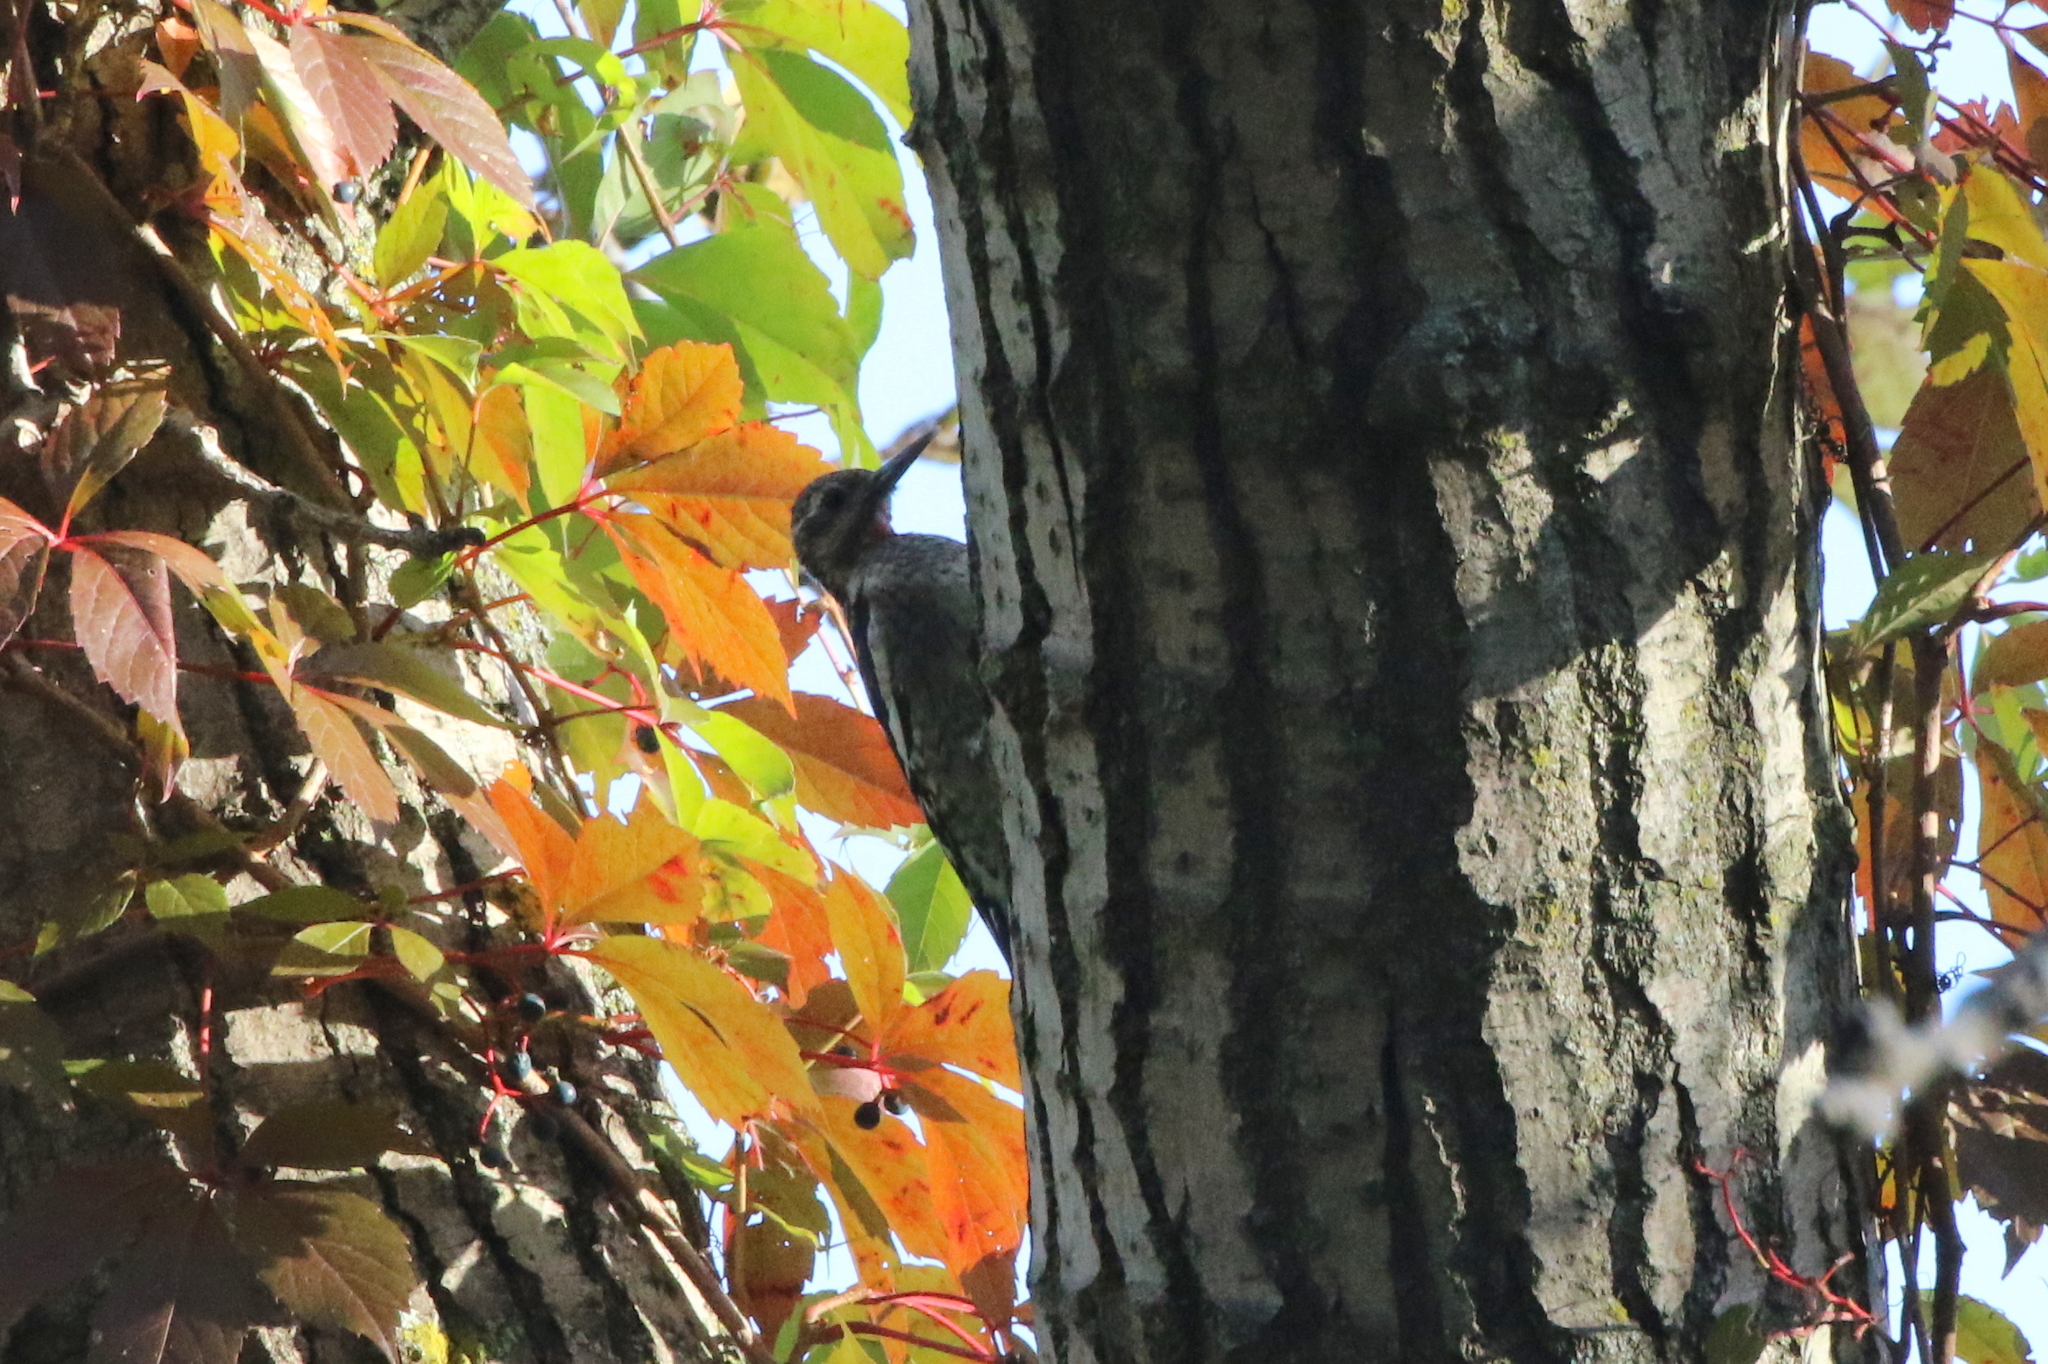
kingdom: Animalia
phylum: Chordata
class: Aves
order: Piciformes
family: Picidae
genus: Sphyrapicus
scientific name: Sphyrapicus varius
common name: Yellow-bellied sapsucker
